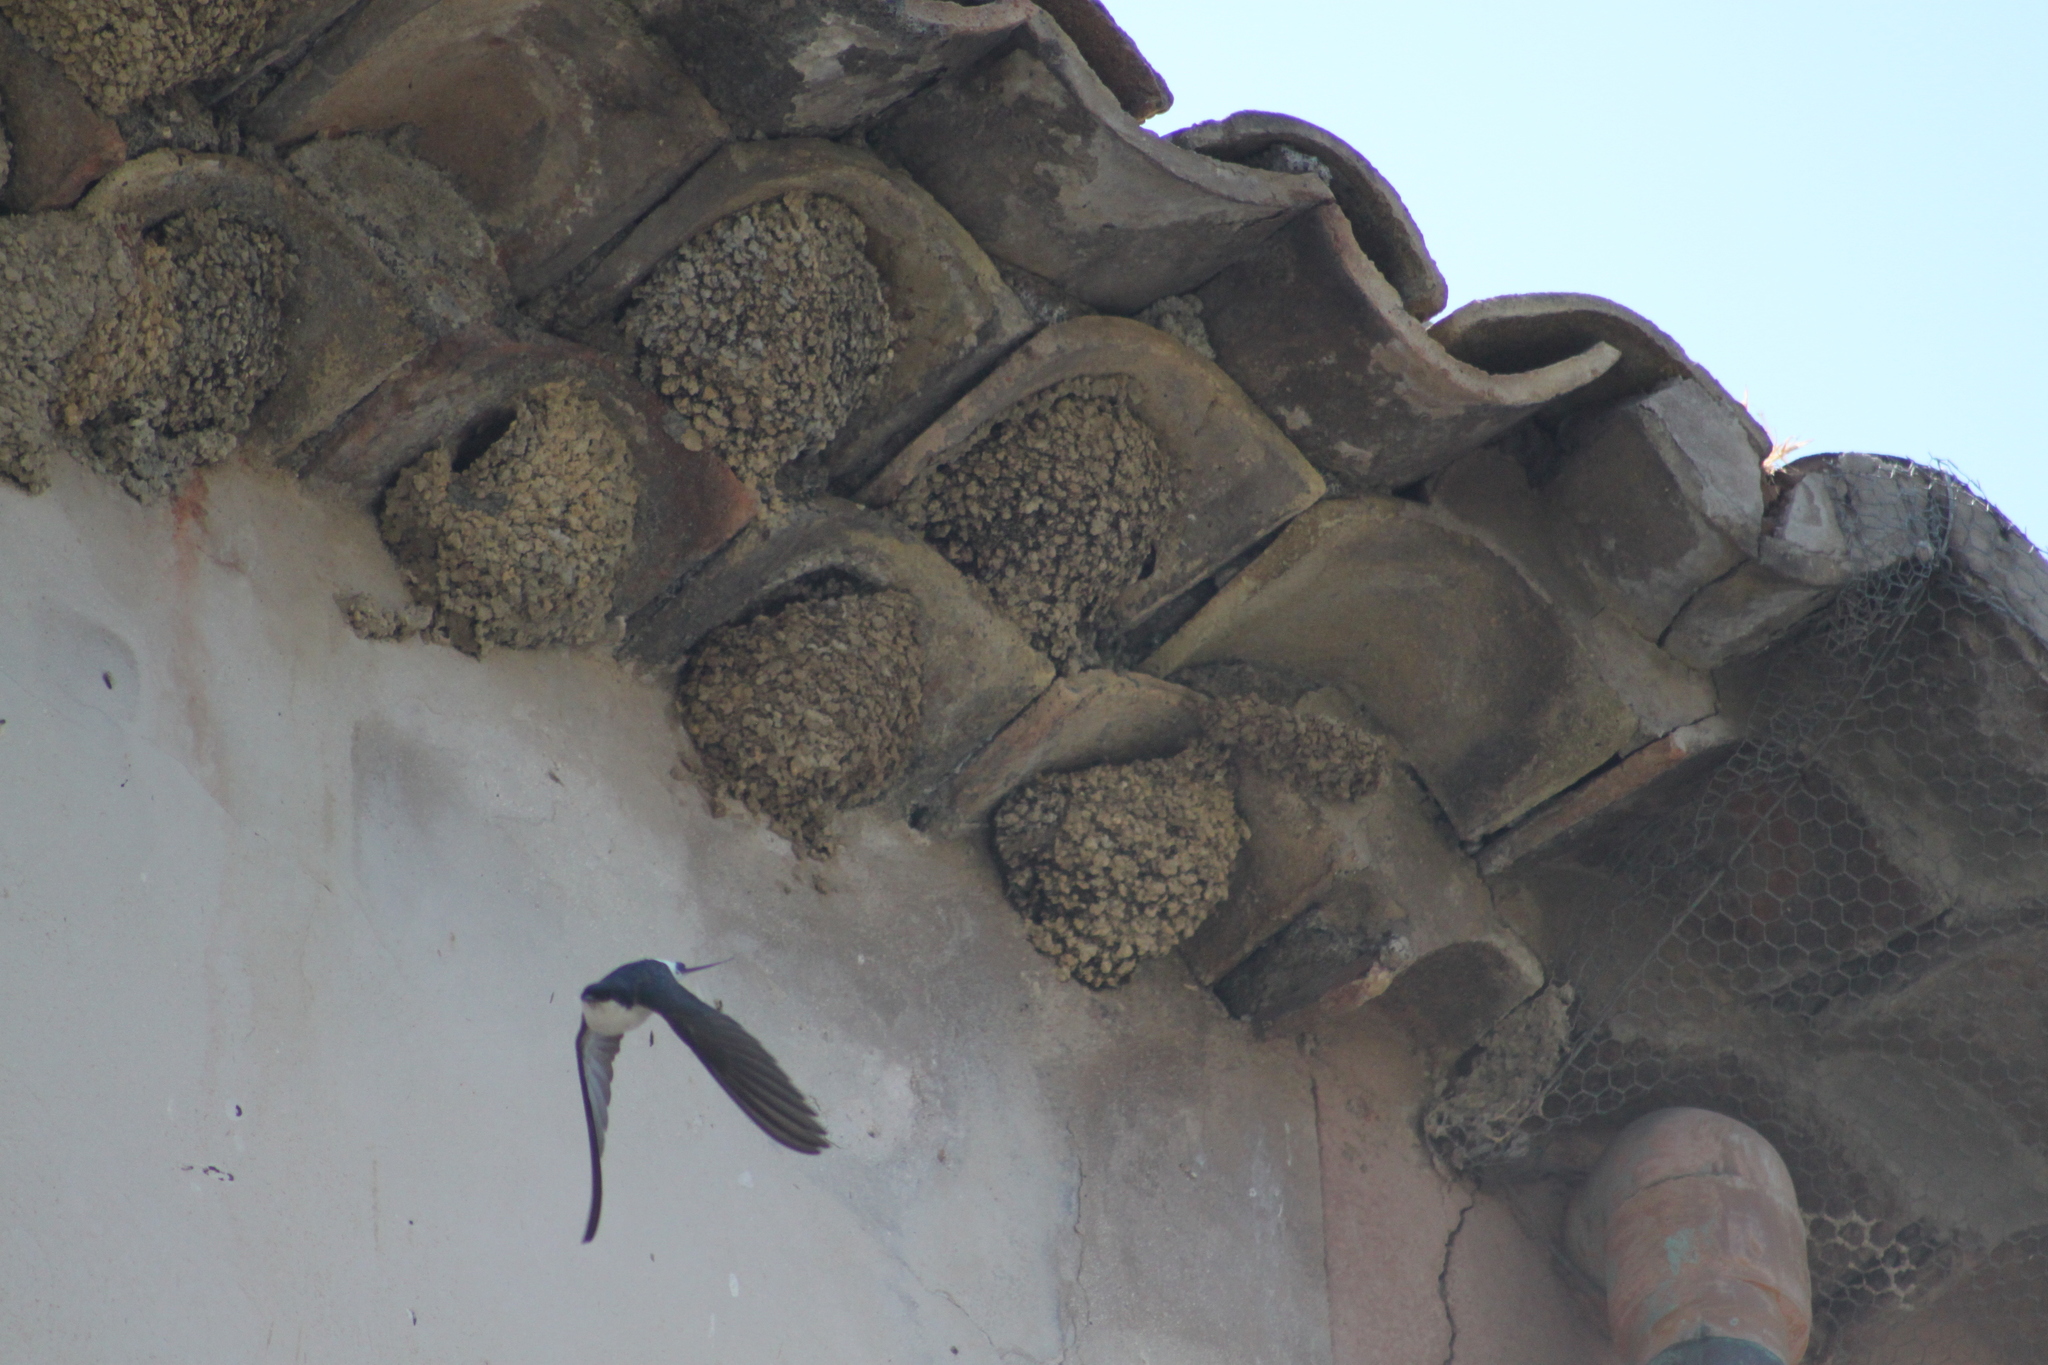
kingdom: Animalia
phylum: Chordata
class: Aves
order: Passeriformes
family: Hirundinidae
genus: Delichon
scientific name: Delichon urbicum
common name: Common house martin
